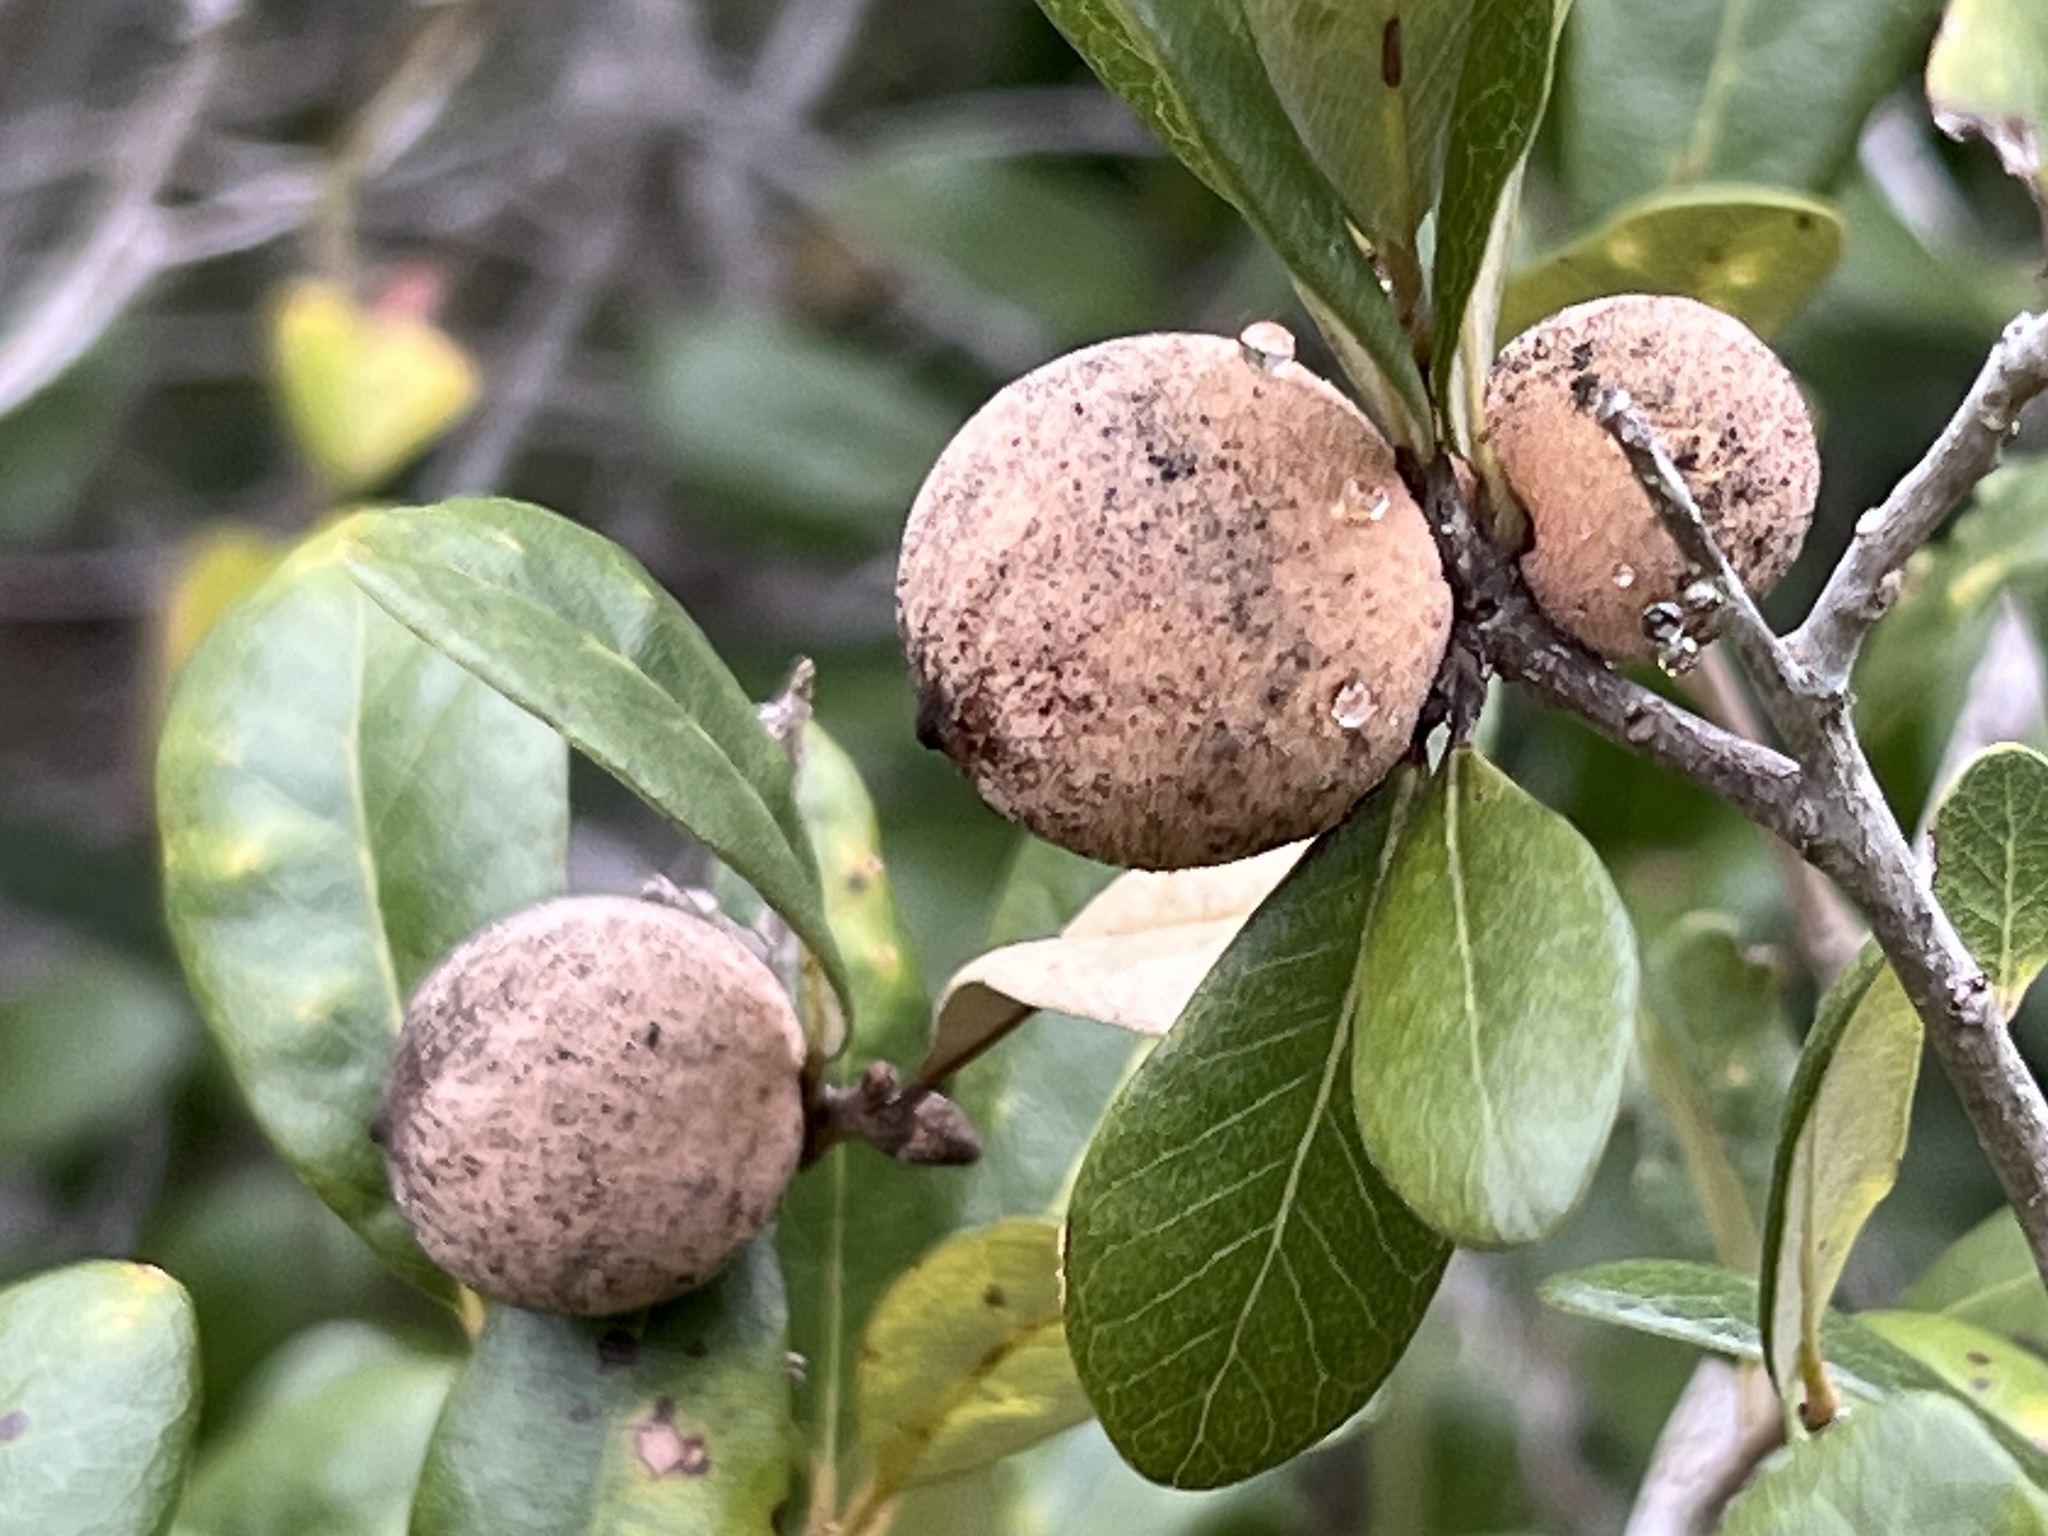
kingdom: Animalia
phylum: Arthropoda
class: Insecta
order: Hymenoptera
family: Cynipidae
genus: Disholcaspis
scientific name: Disholcaspis
